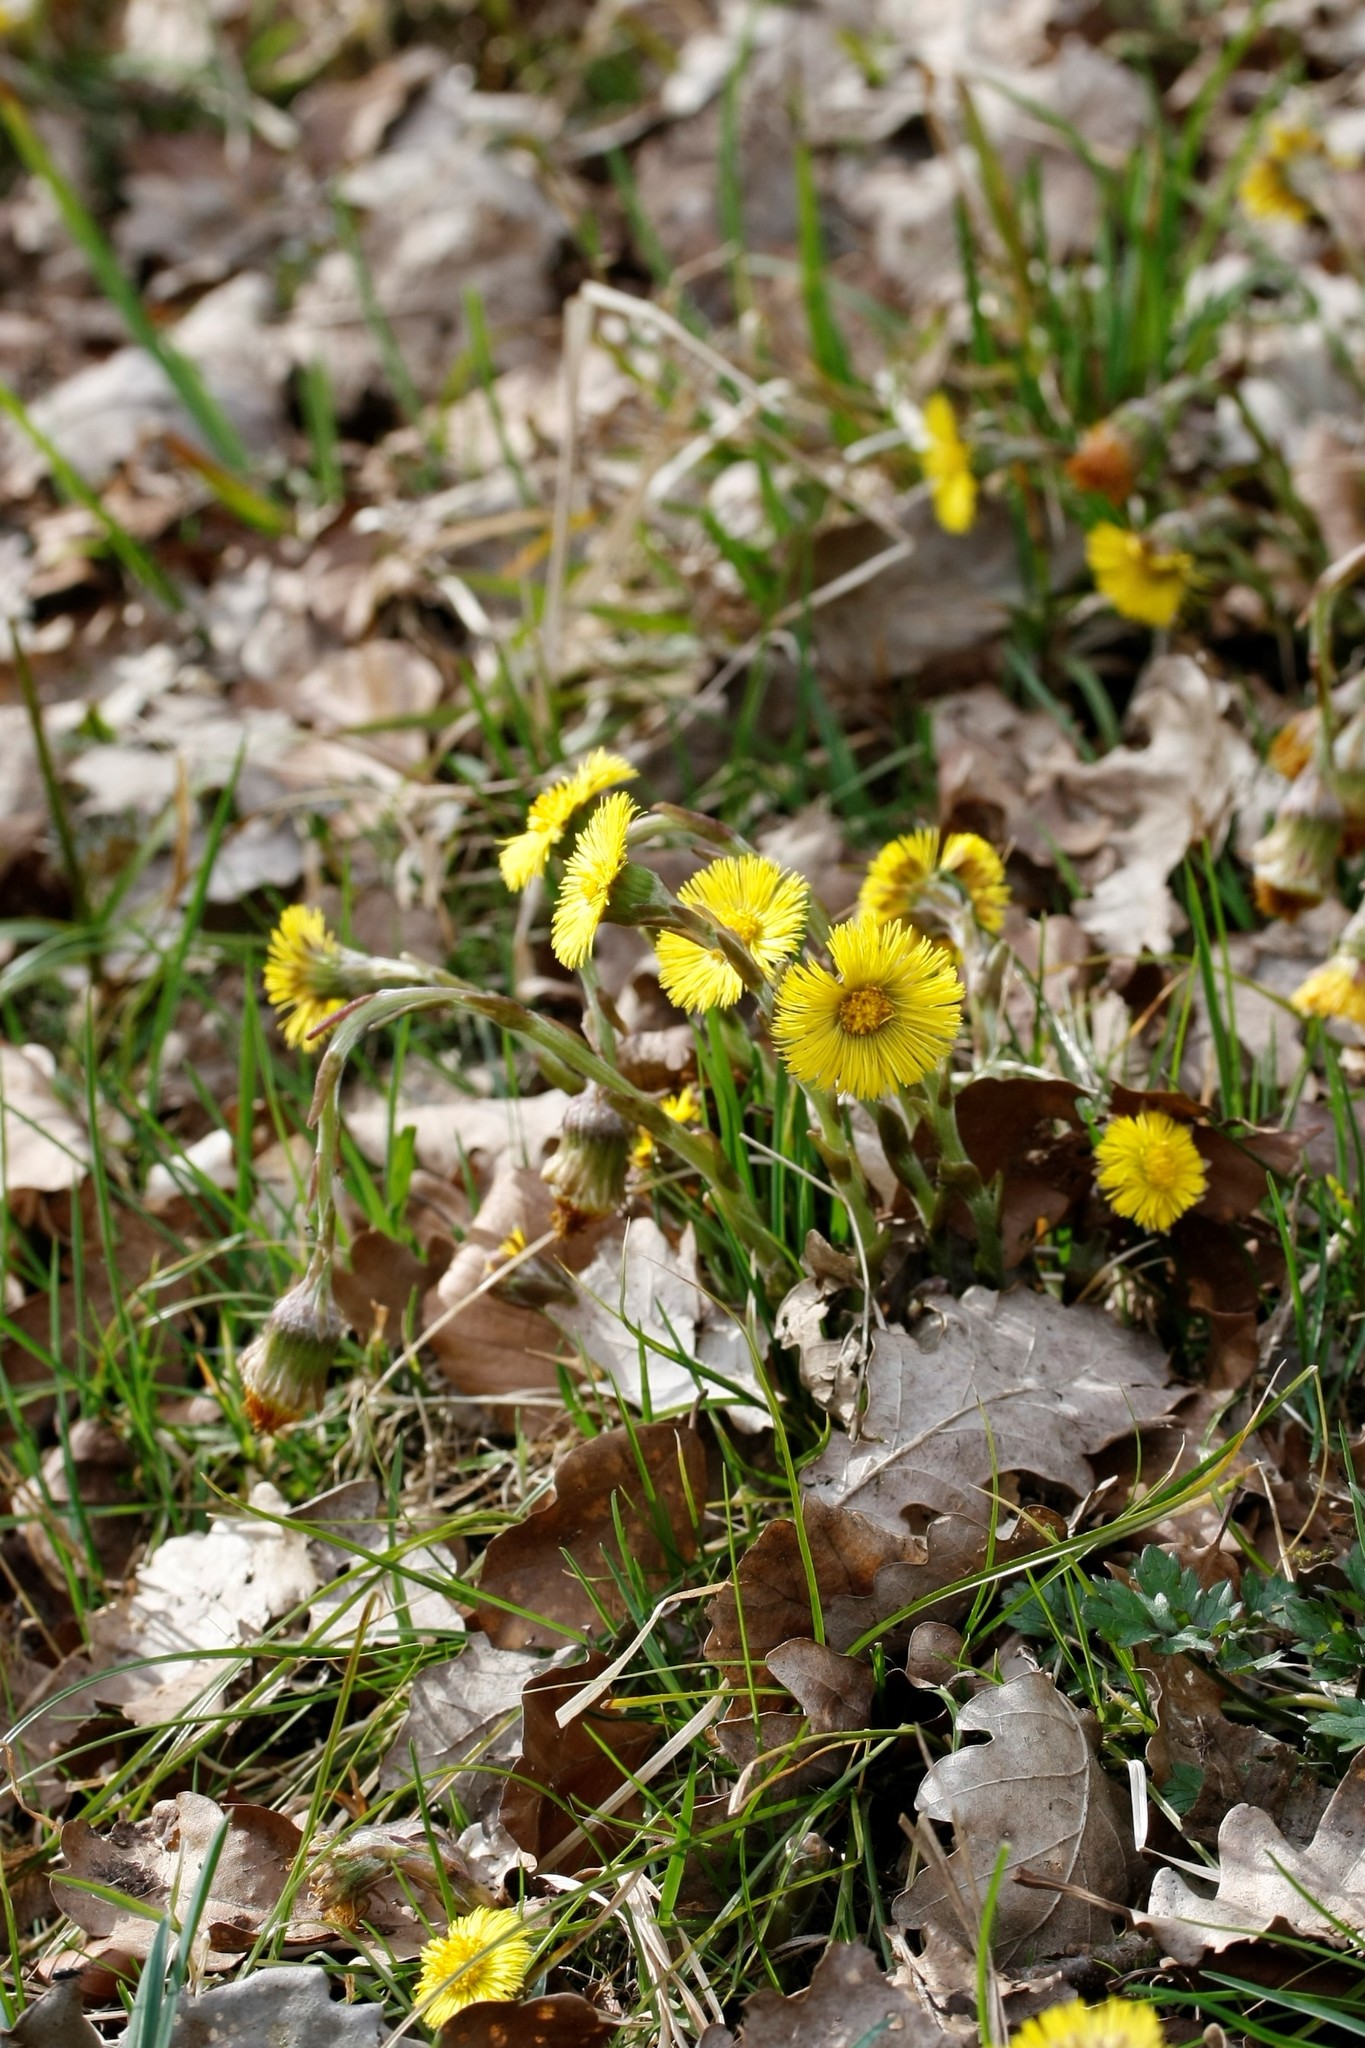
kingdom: Plantae
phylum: Tracheophyta
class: Magnoliopsida
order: Asterales
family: Asteraceae
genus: Tussilago
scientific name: Tussilago farfara
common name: Coltsfoot
